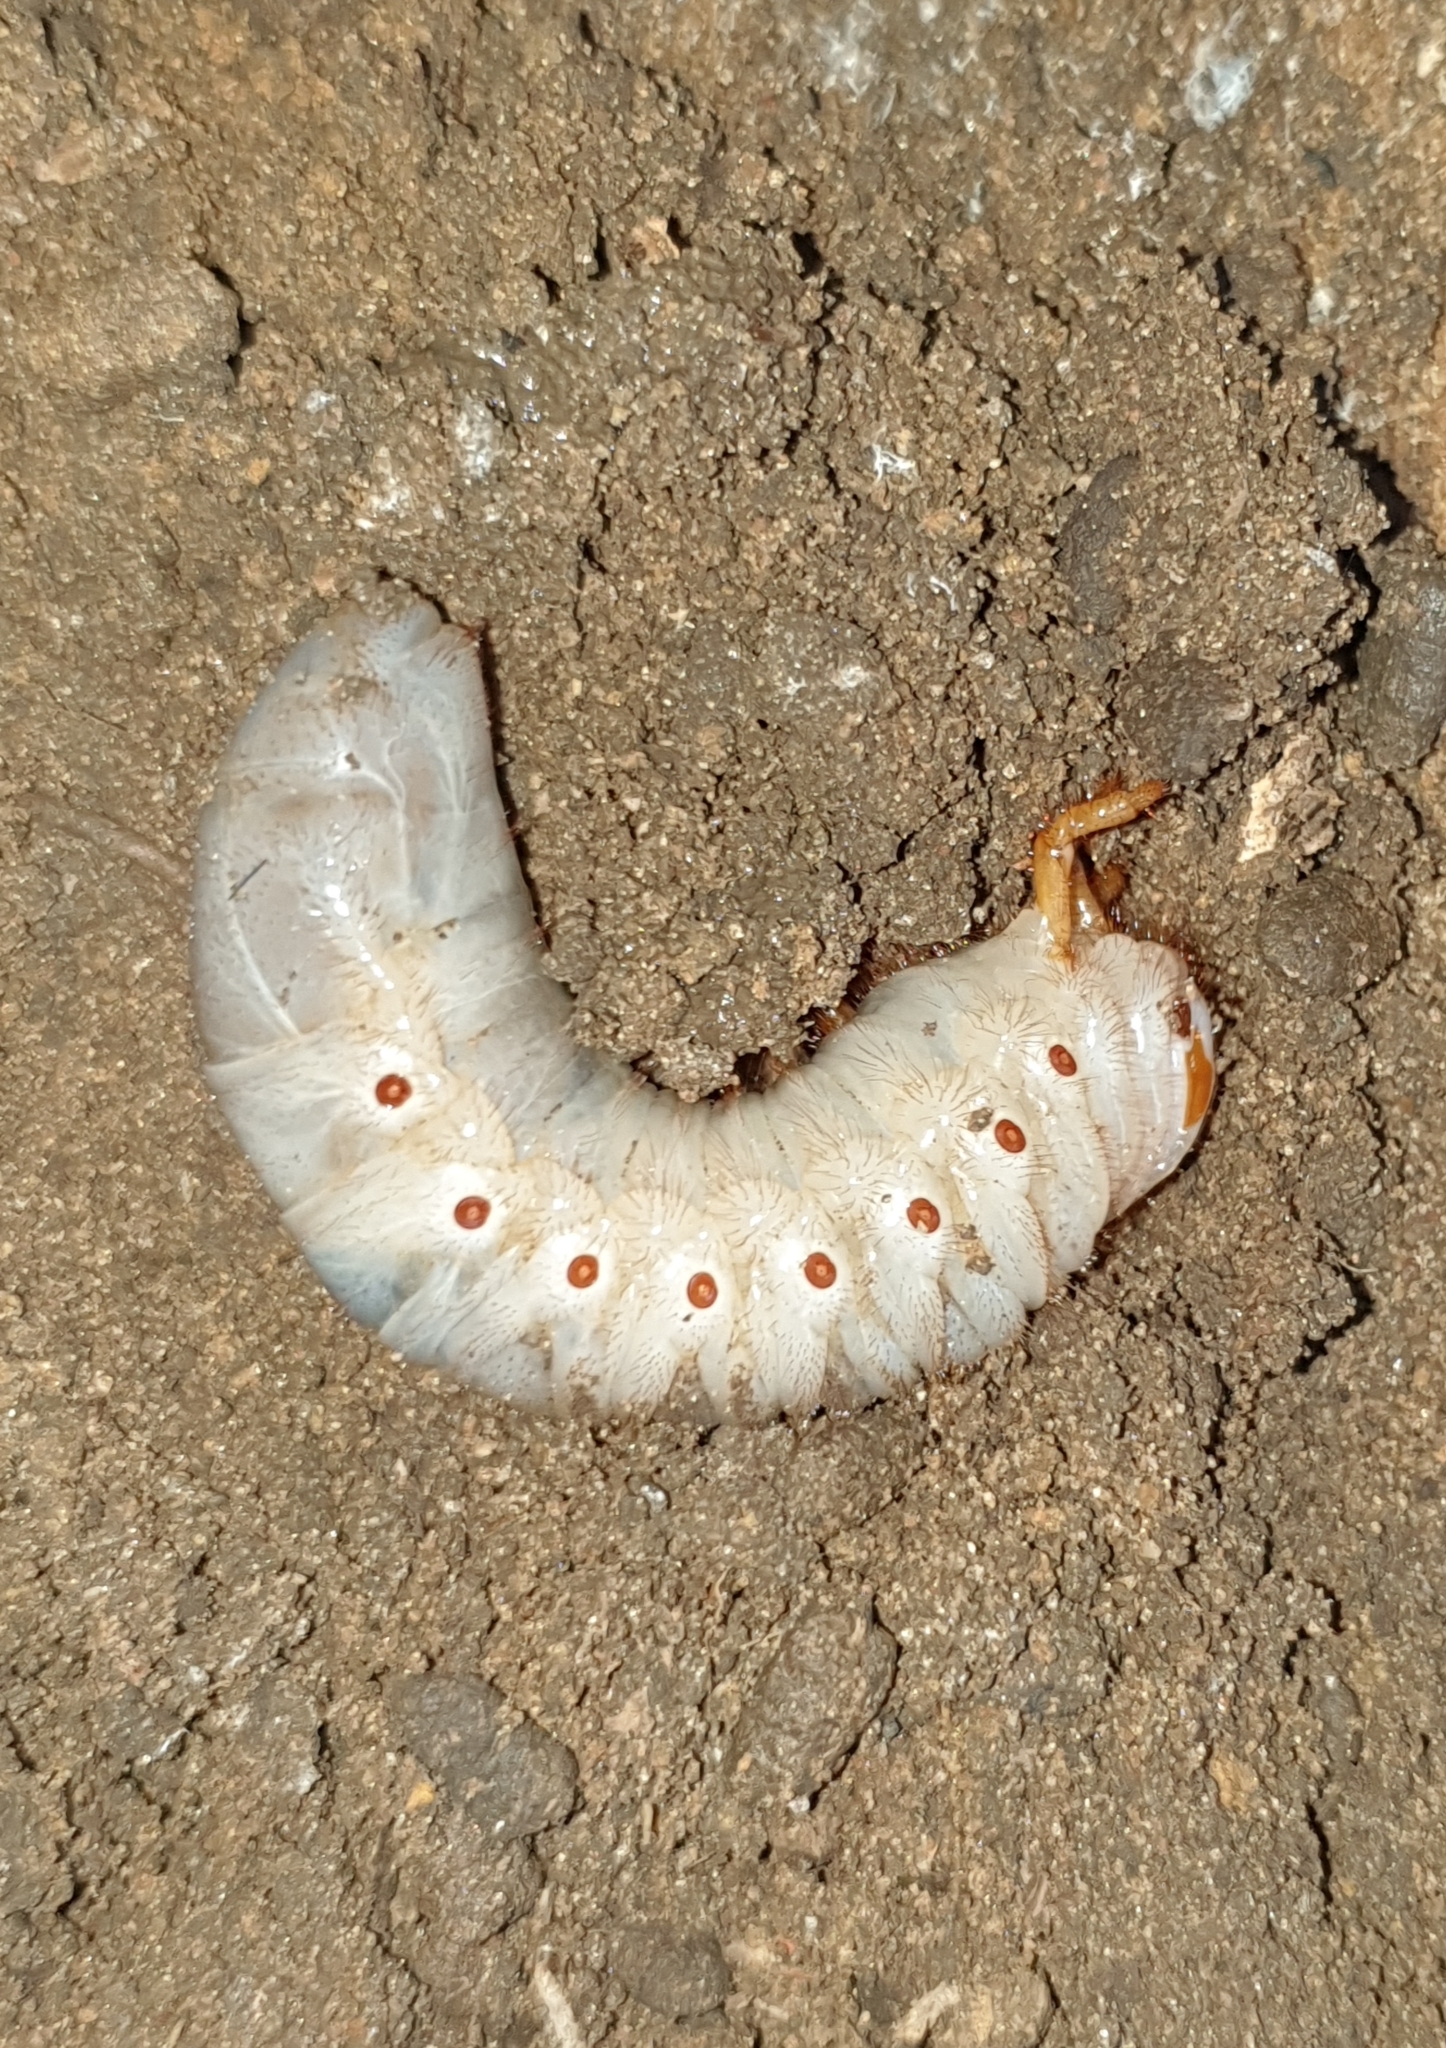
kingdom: Animalia
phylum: Arthropoda
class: Insecta
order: Coleoptera
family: Scarabaeidae
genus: Oryctes
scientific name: Oryctes rhinoceros
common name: Coconut rhinoceros beetle
